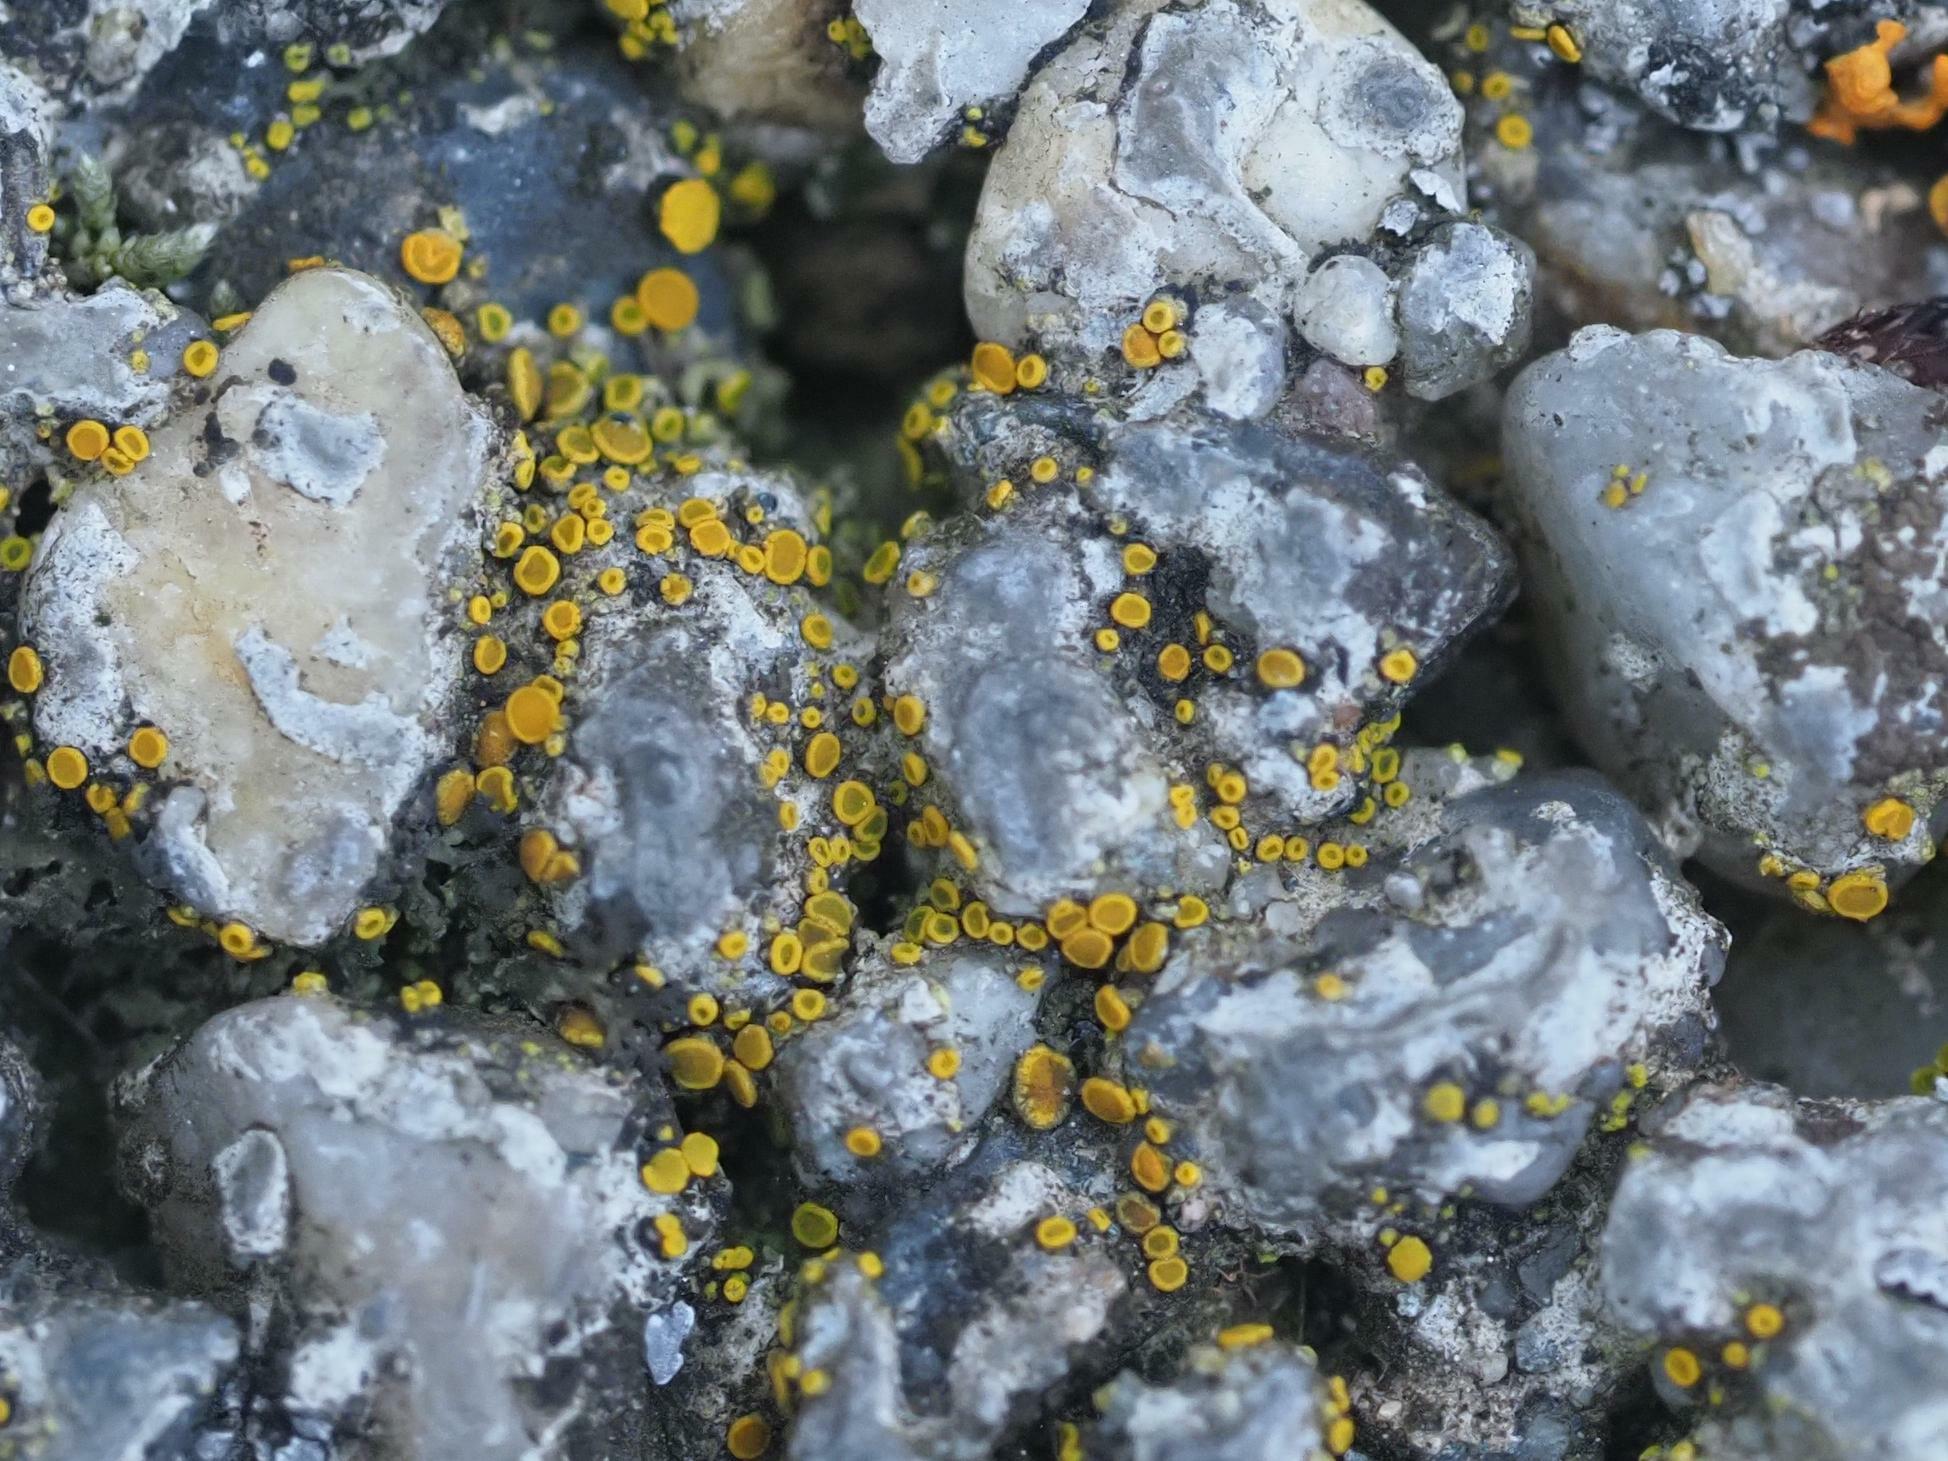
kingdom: Fungi
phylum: Ascomycota
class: Candelariomycetes
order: Candelariales
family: Candelariaceae
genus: Candelariella
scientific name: Candelariella aurella
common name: Hidden goldspeck lichen
